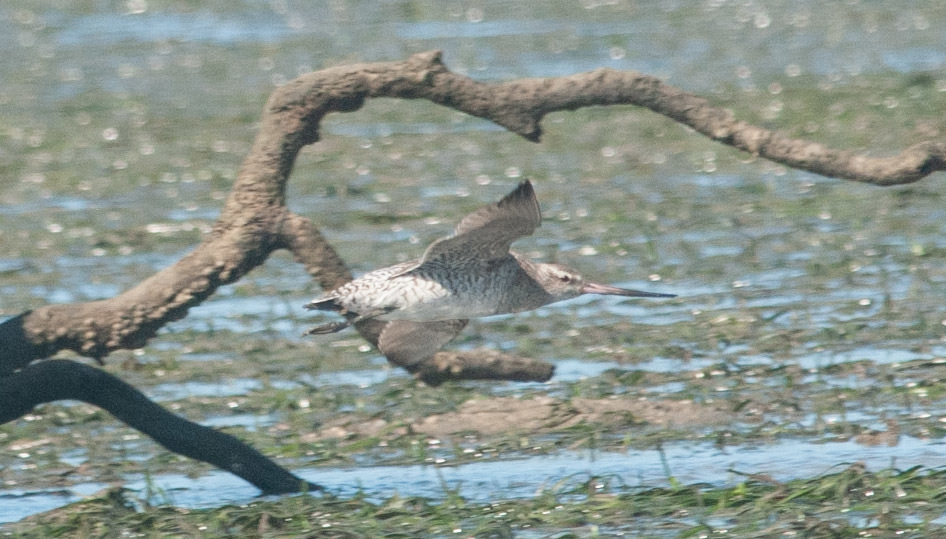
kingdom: Animalia
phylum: Chordata
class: Aves
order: Charadriiformes
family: Scolopacidae
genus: Limosa
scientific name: Limosa lapponica
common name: Bar-tailed godwit
